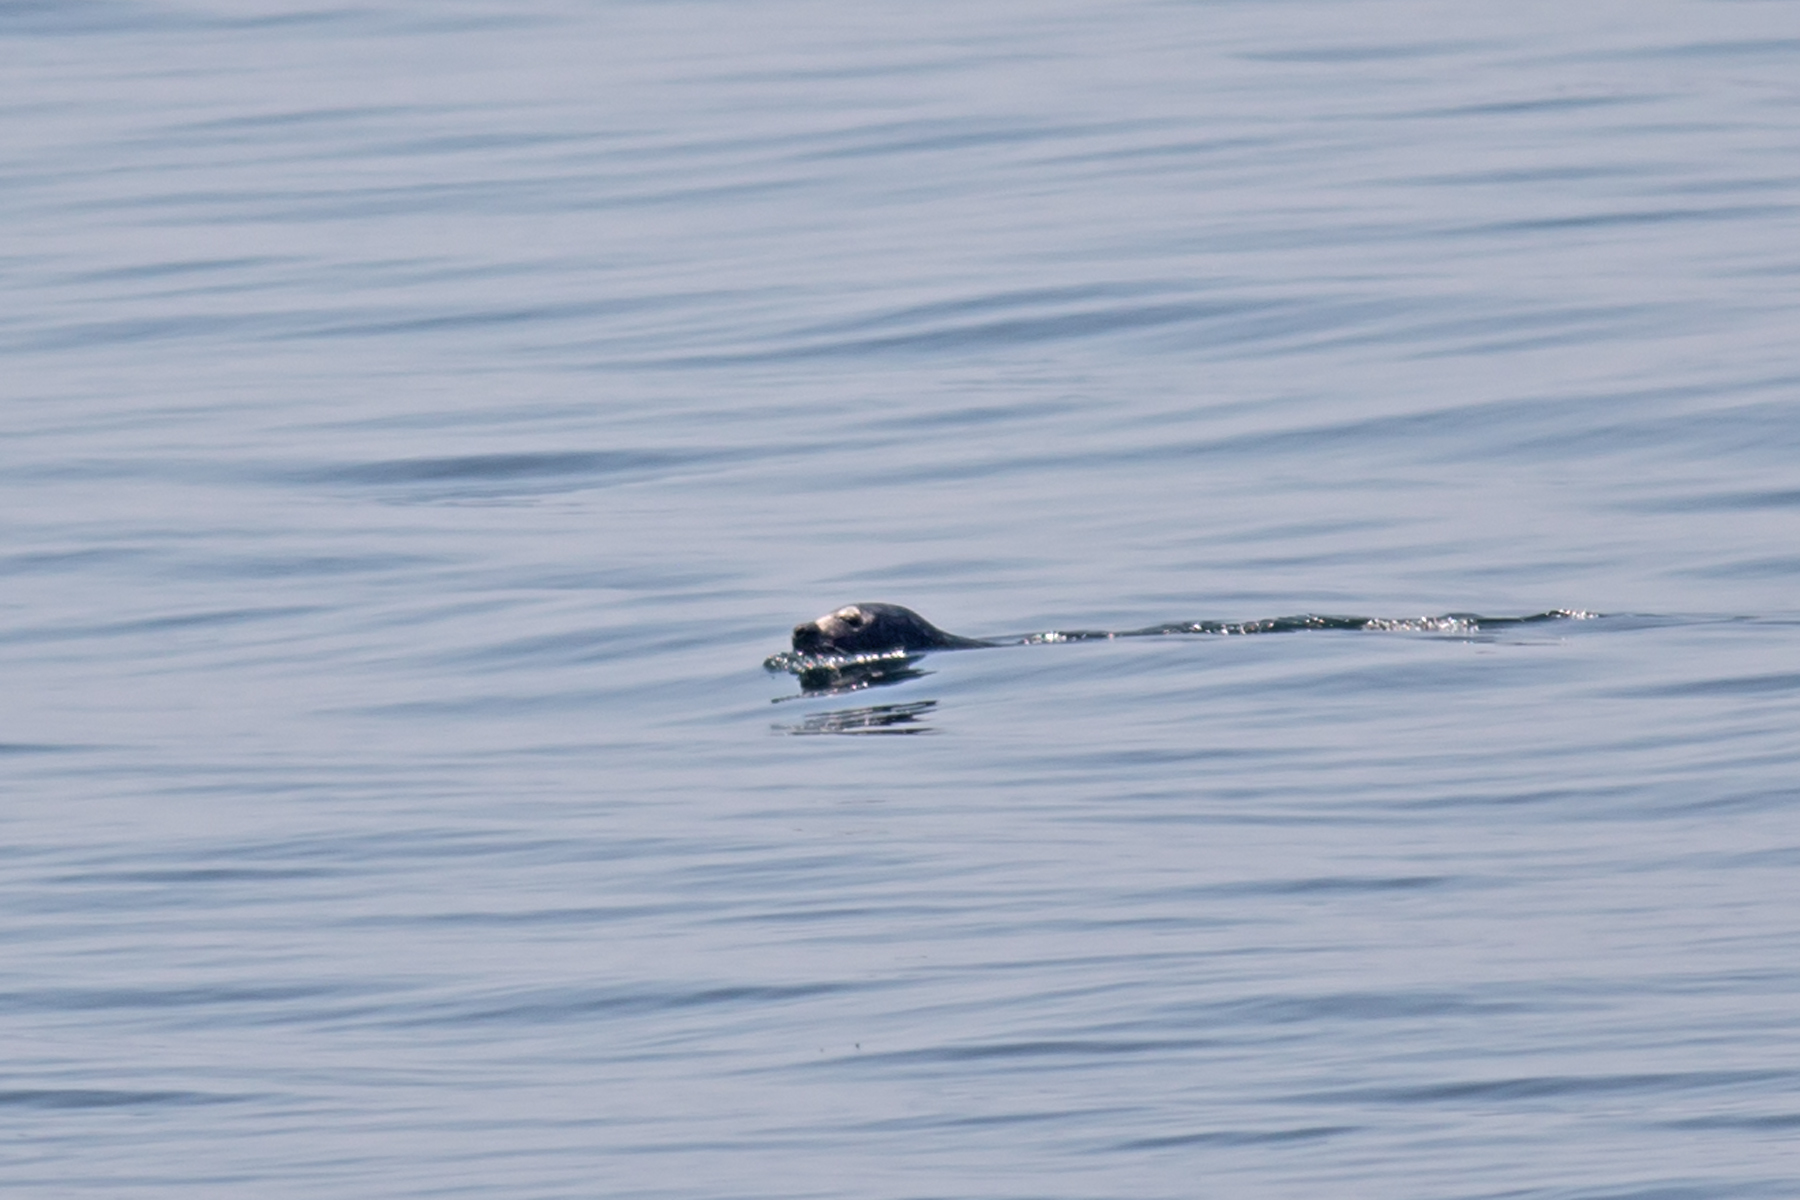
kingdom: Animalia
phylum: Chordata
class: Mammalia
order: Carnivora
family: Phocidae
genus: Phoca
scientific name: Phoca vitulina
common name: Harbor seal
